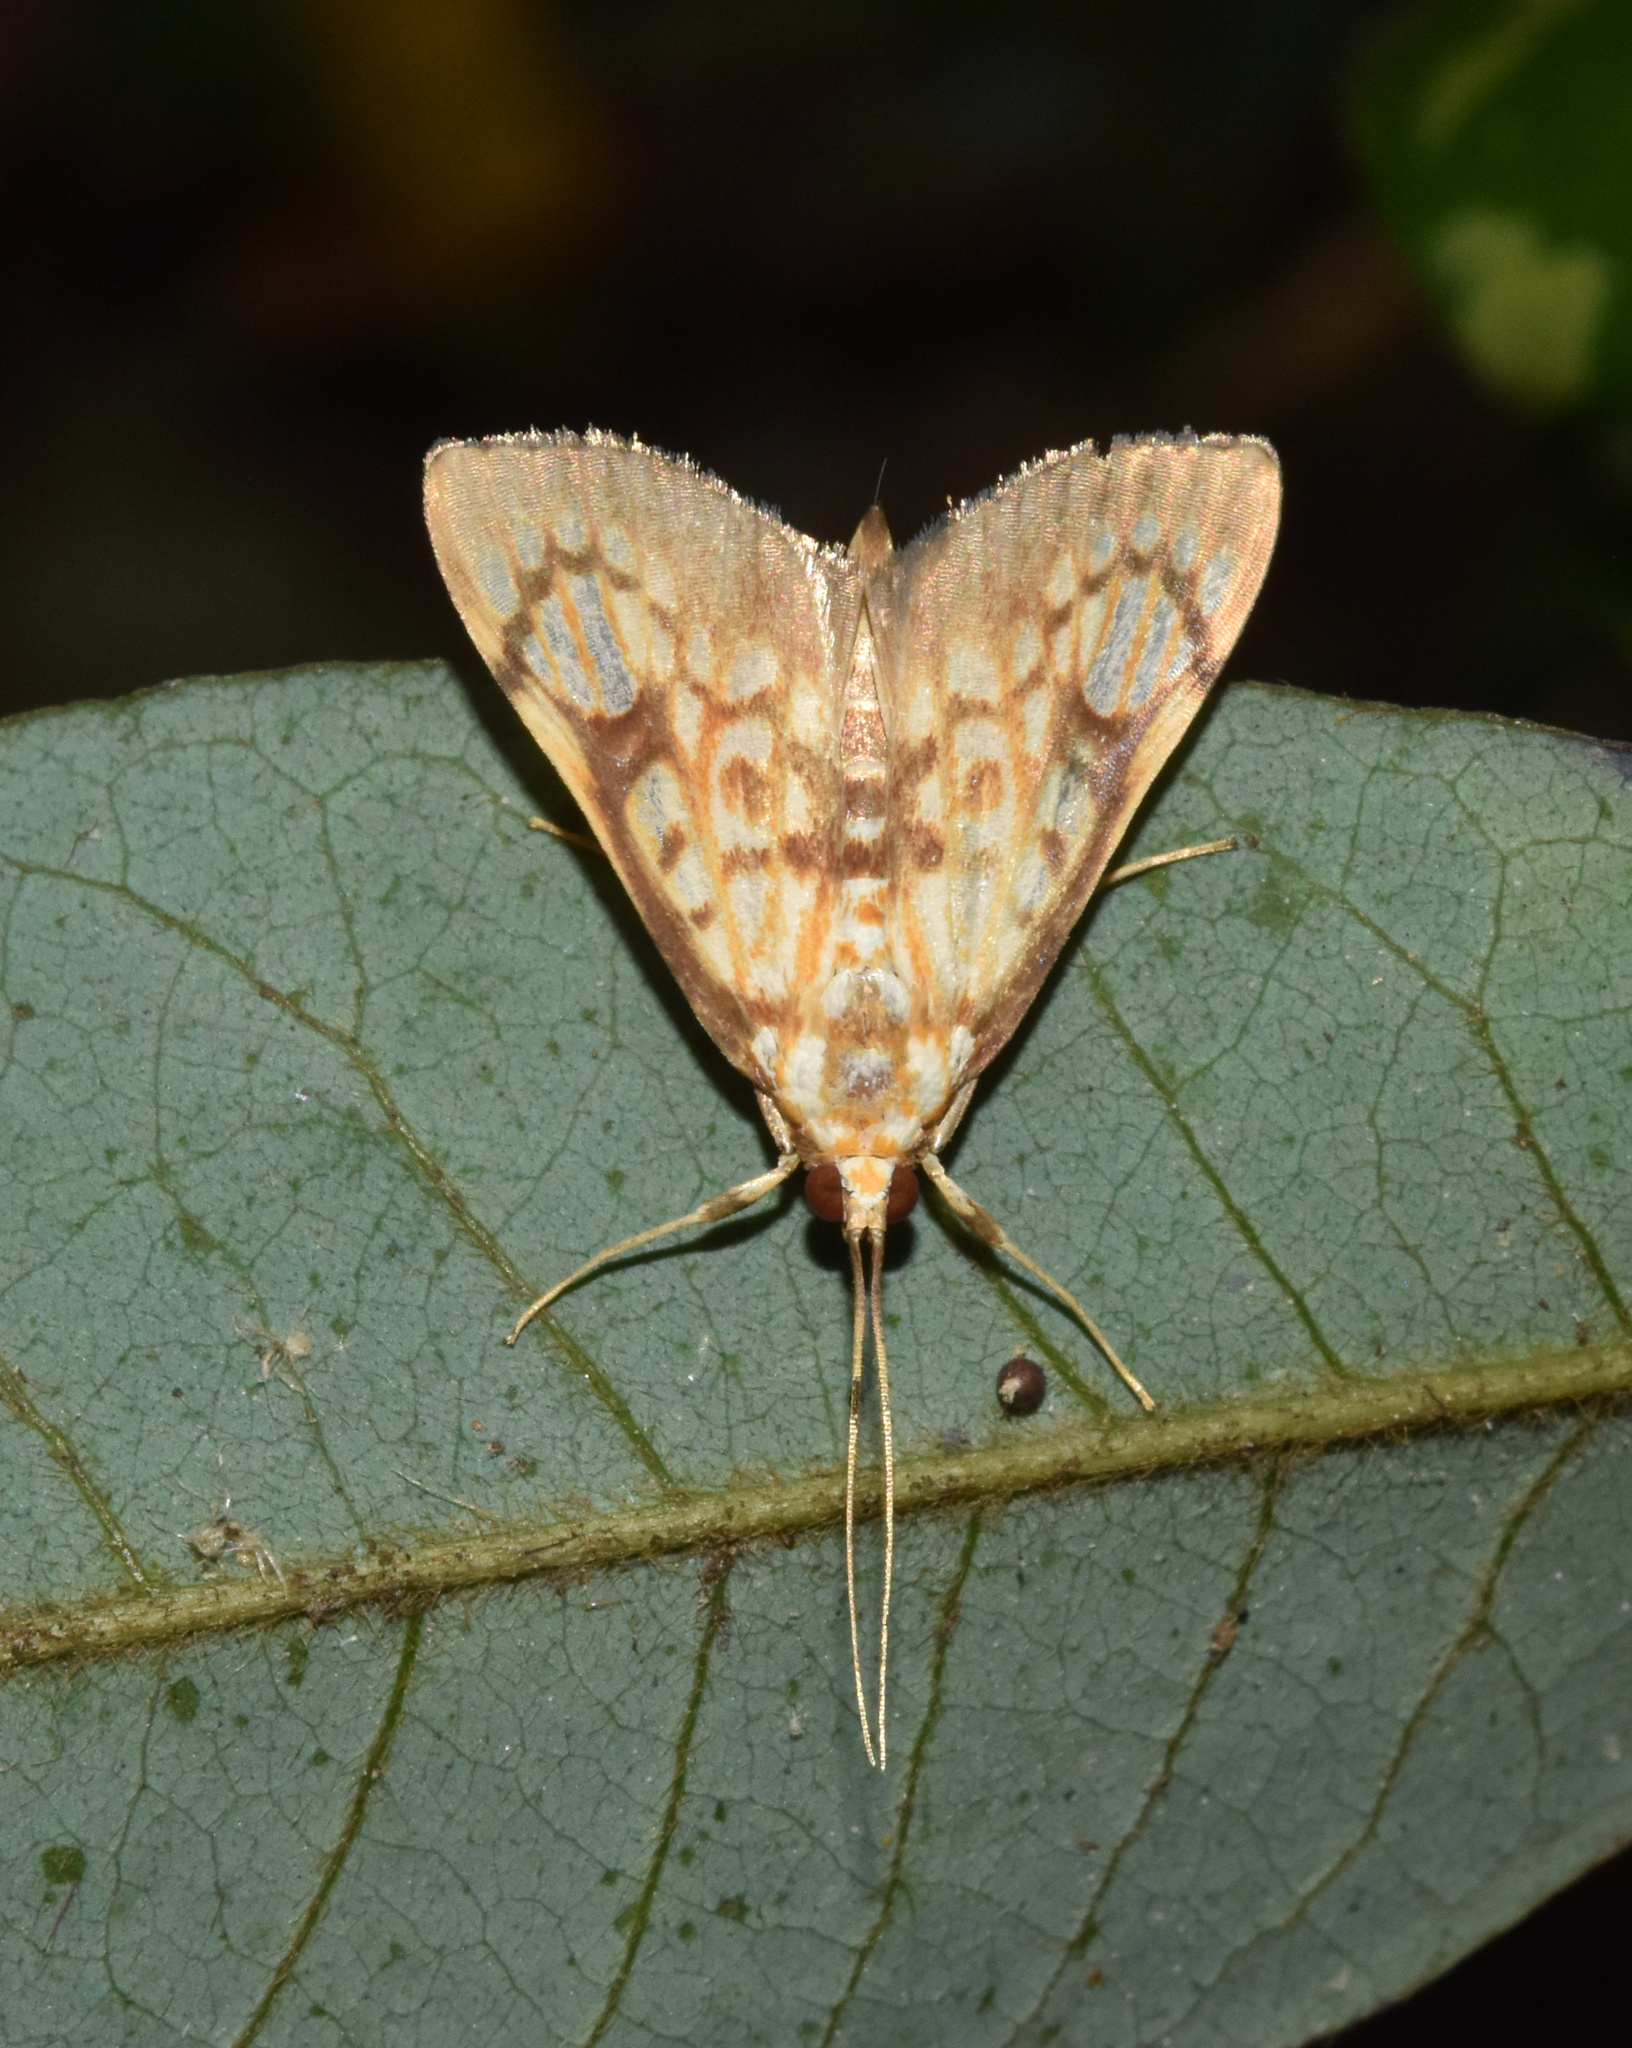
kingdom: Animalia
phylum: Arthropoda
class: Insecta
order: Lepidoptera
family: Crambidae
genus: Chalcidoptera
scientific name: Chalcidoptera rufilinealis
